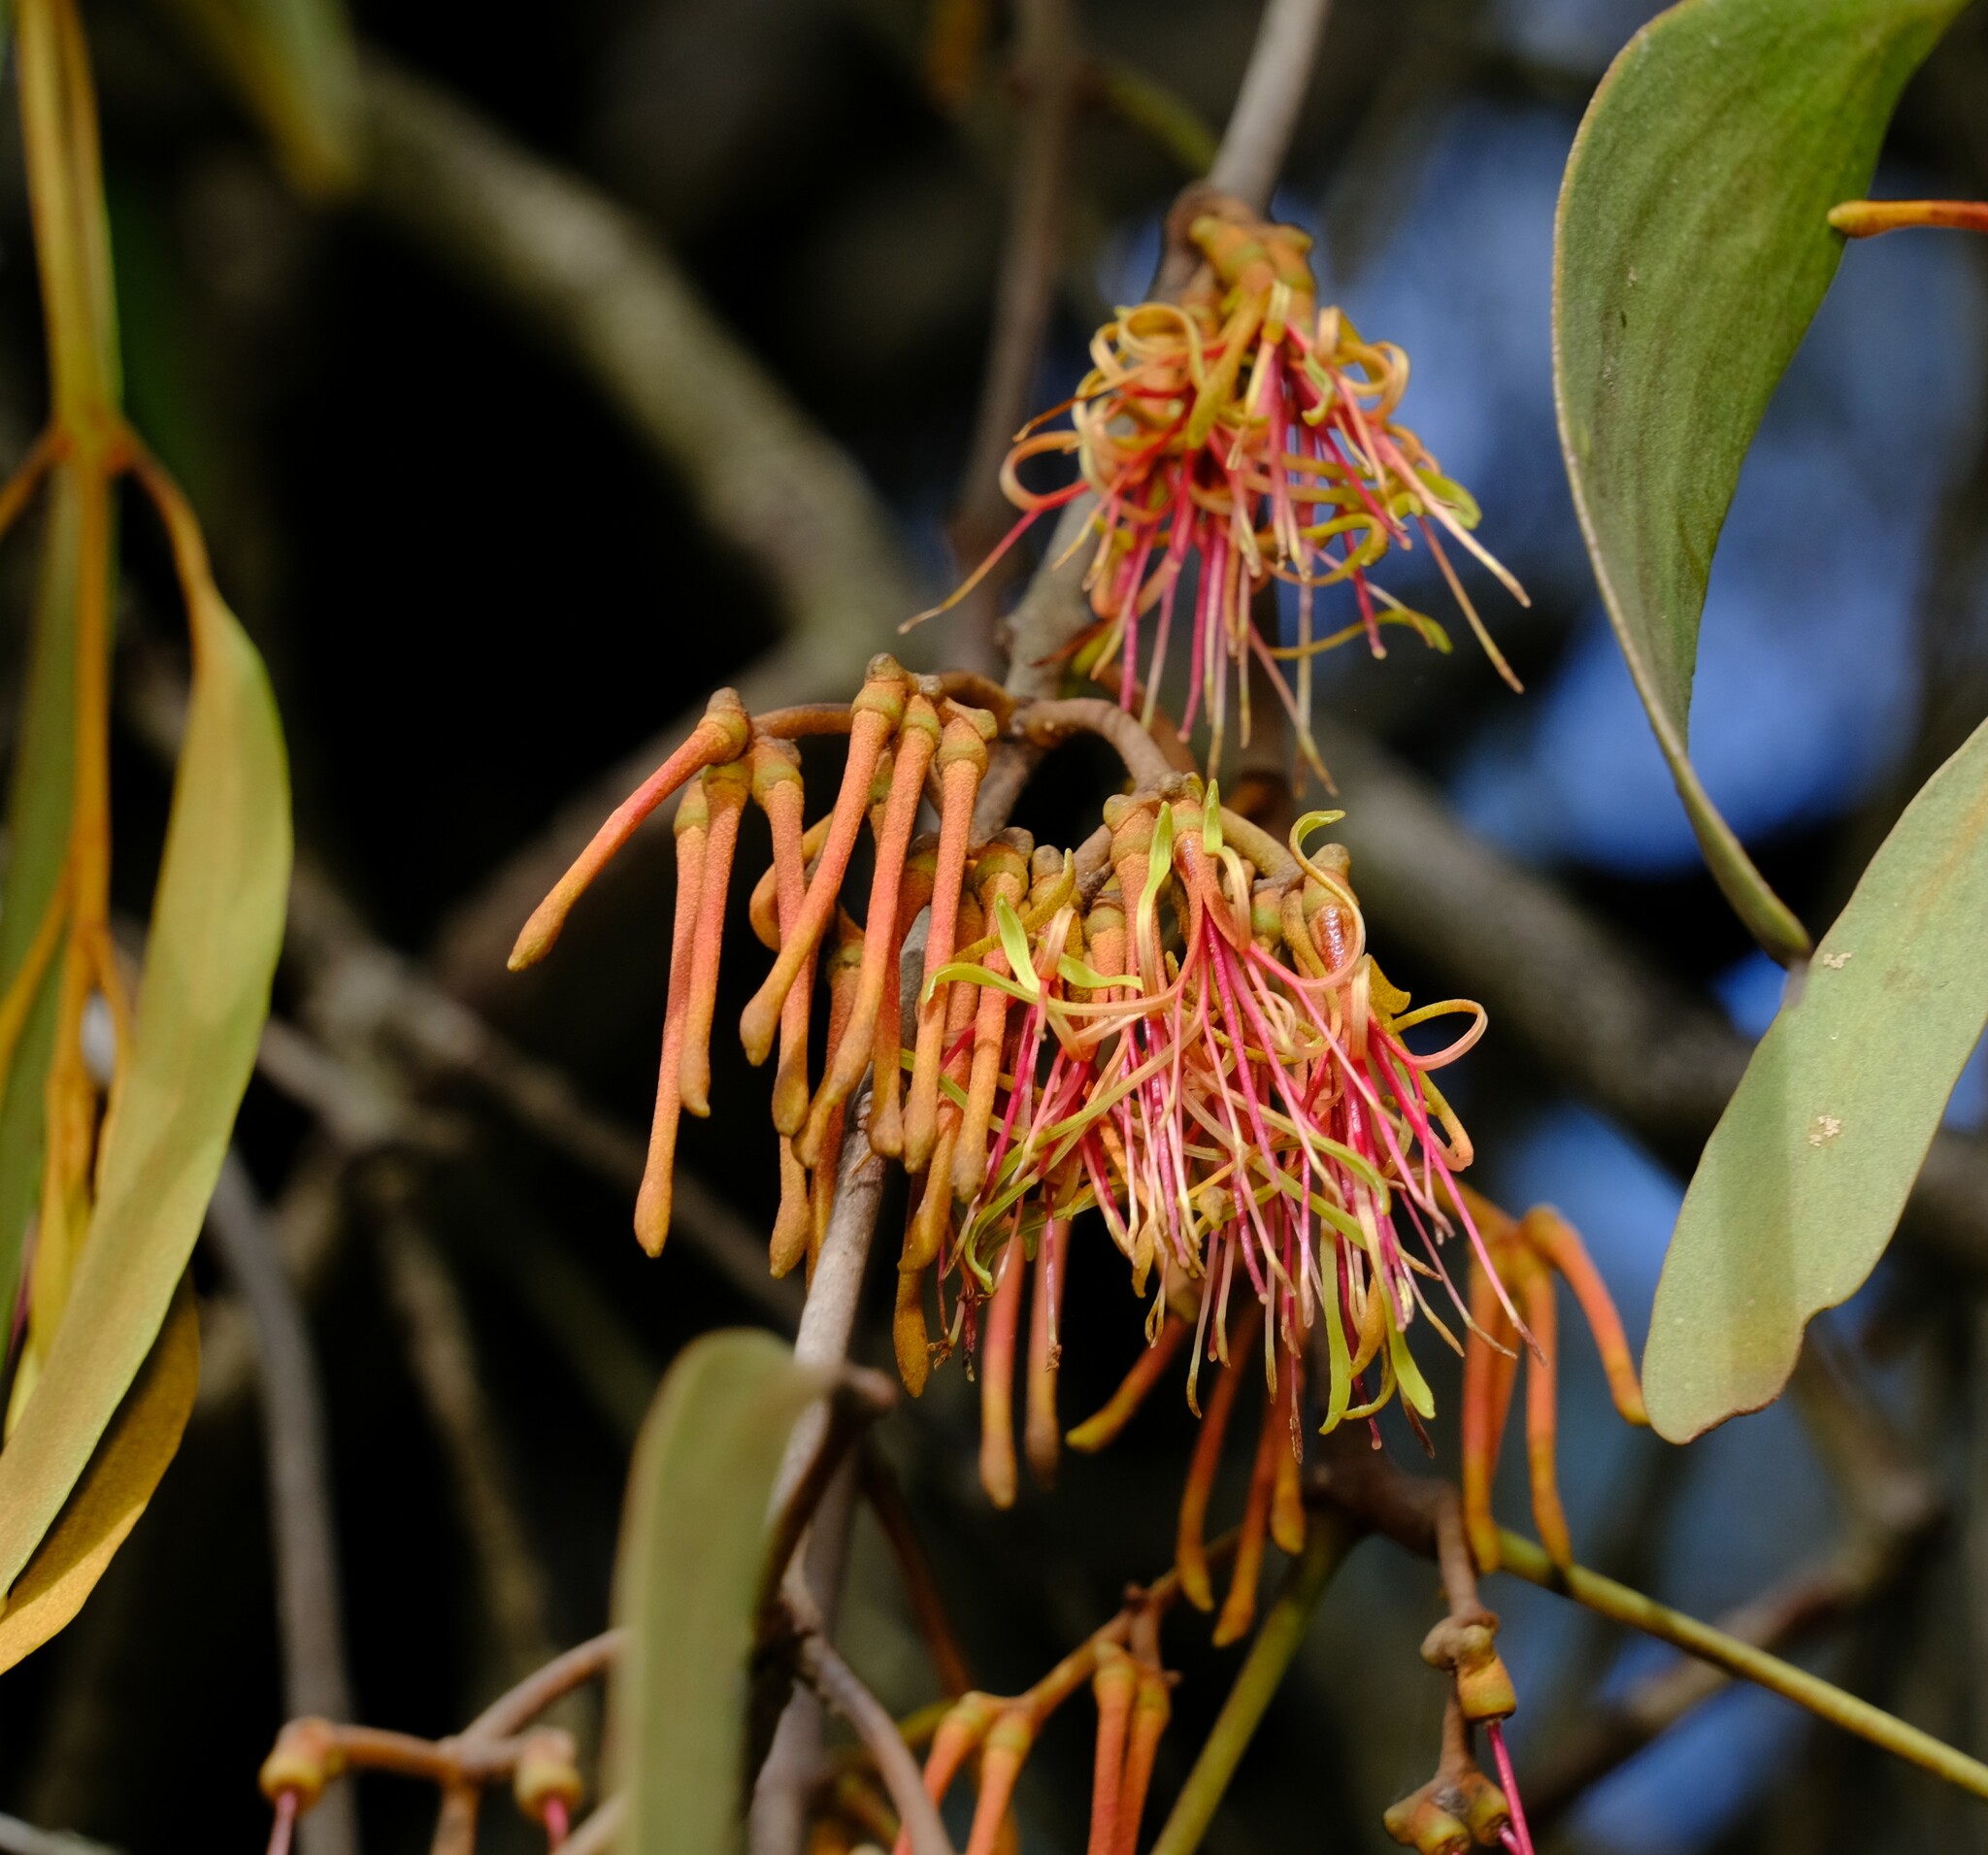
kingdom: Plantae
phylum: Tracheophyta
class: Magnoliopsida
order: Santalales
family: Loranthaceae
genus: Amyema
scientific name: Amyema pendula
